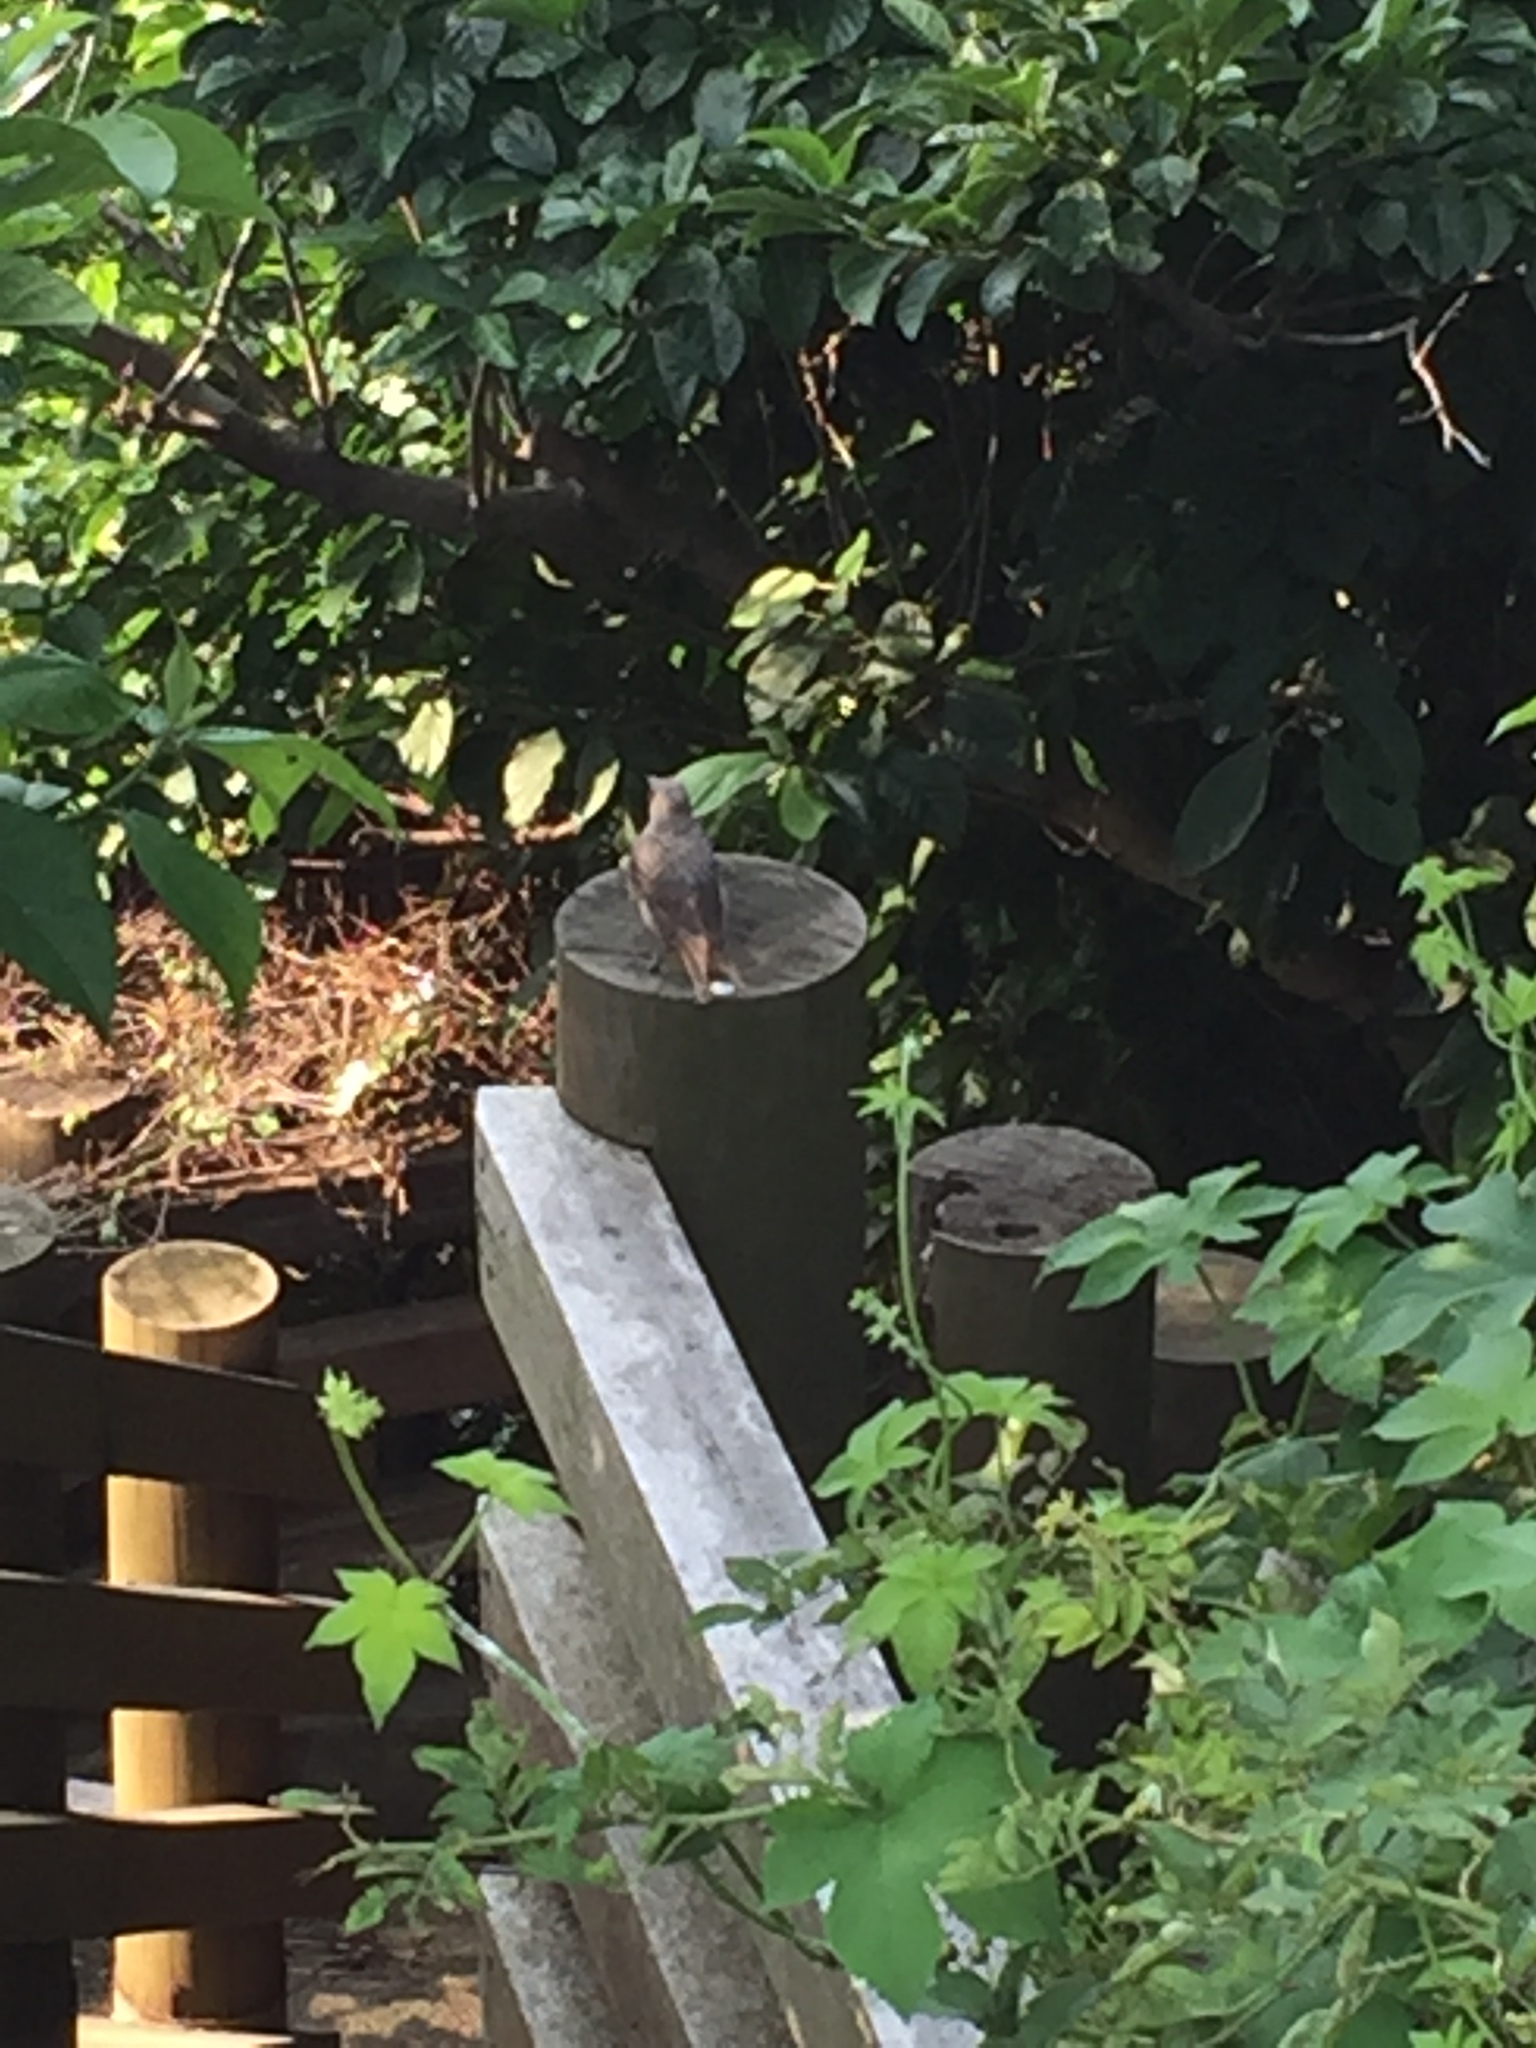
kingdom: Animalia
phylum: Chordata
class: Aves
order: Passeriformes
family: Pycnonotidae
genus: Hypsipetes
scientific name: Hypsipetes amaurotis
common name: Brown-eared bulbul
